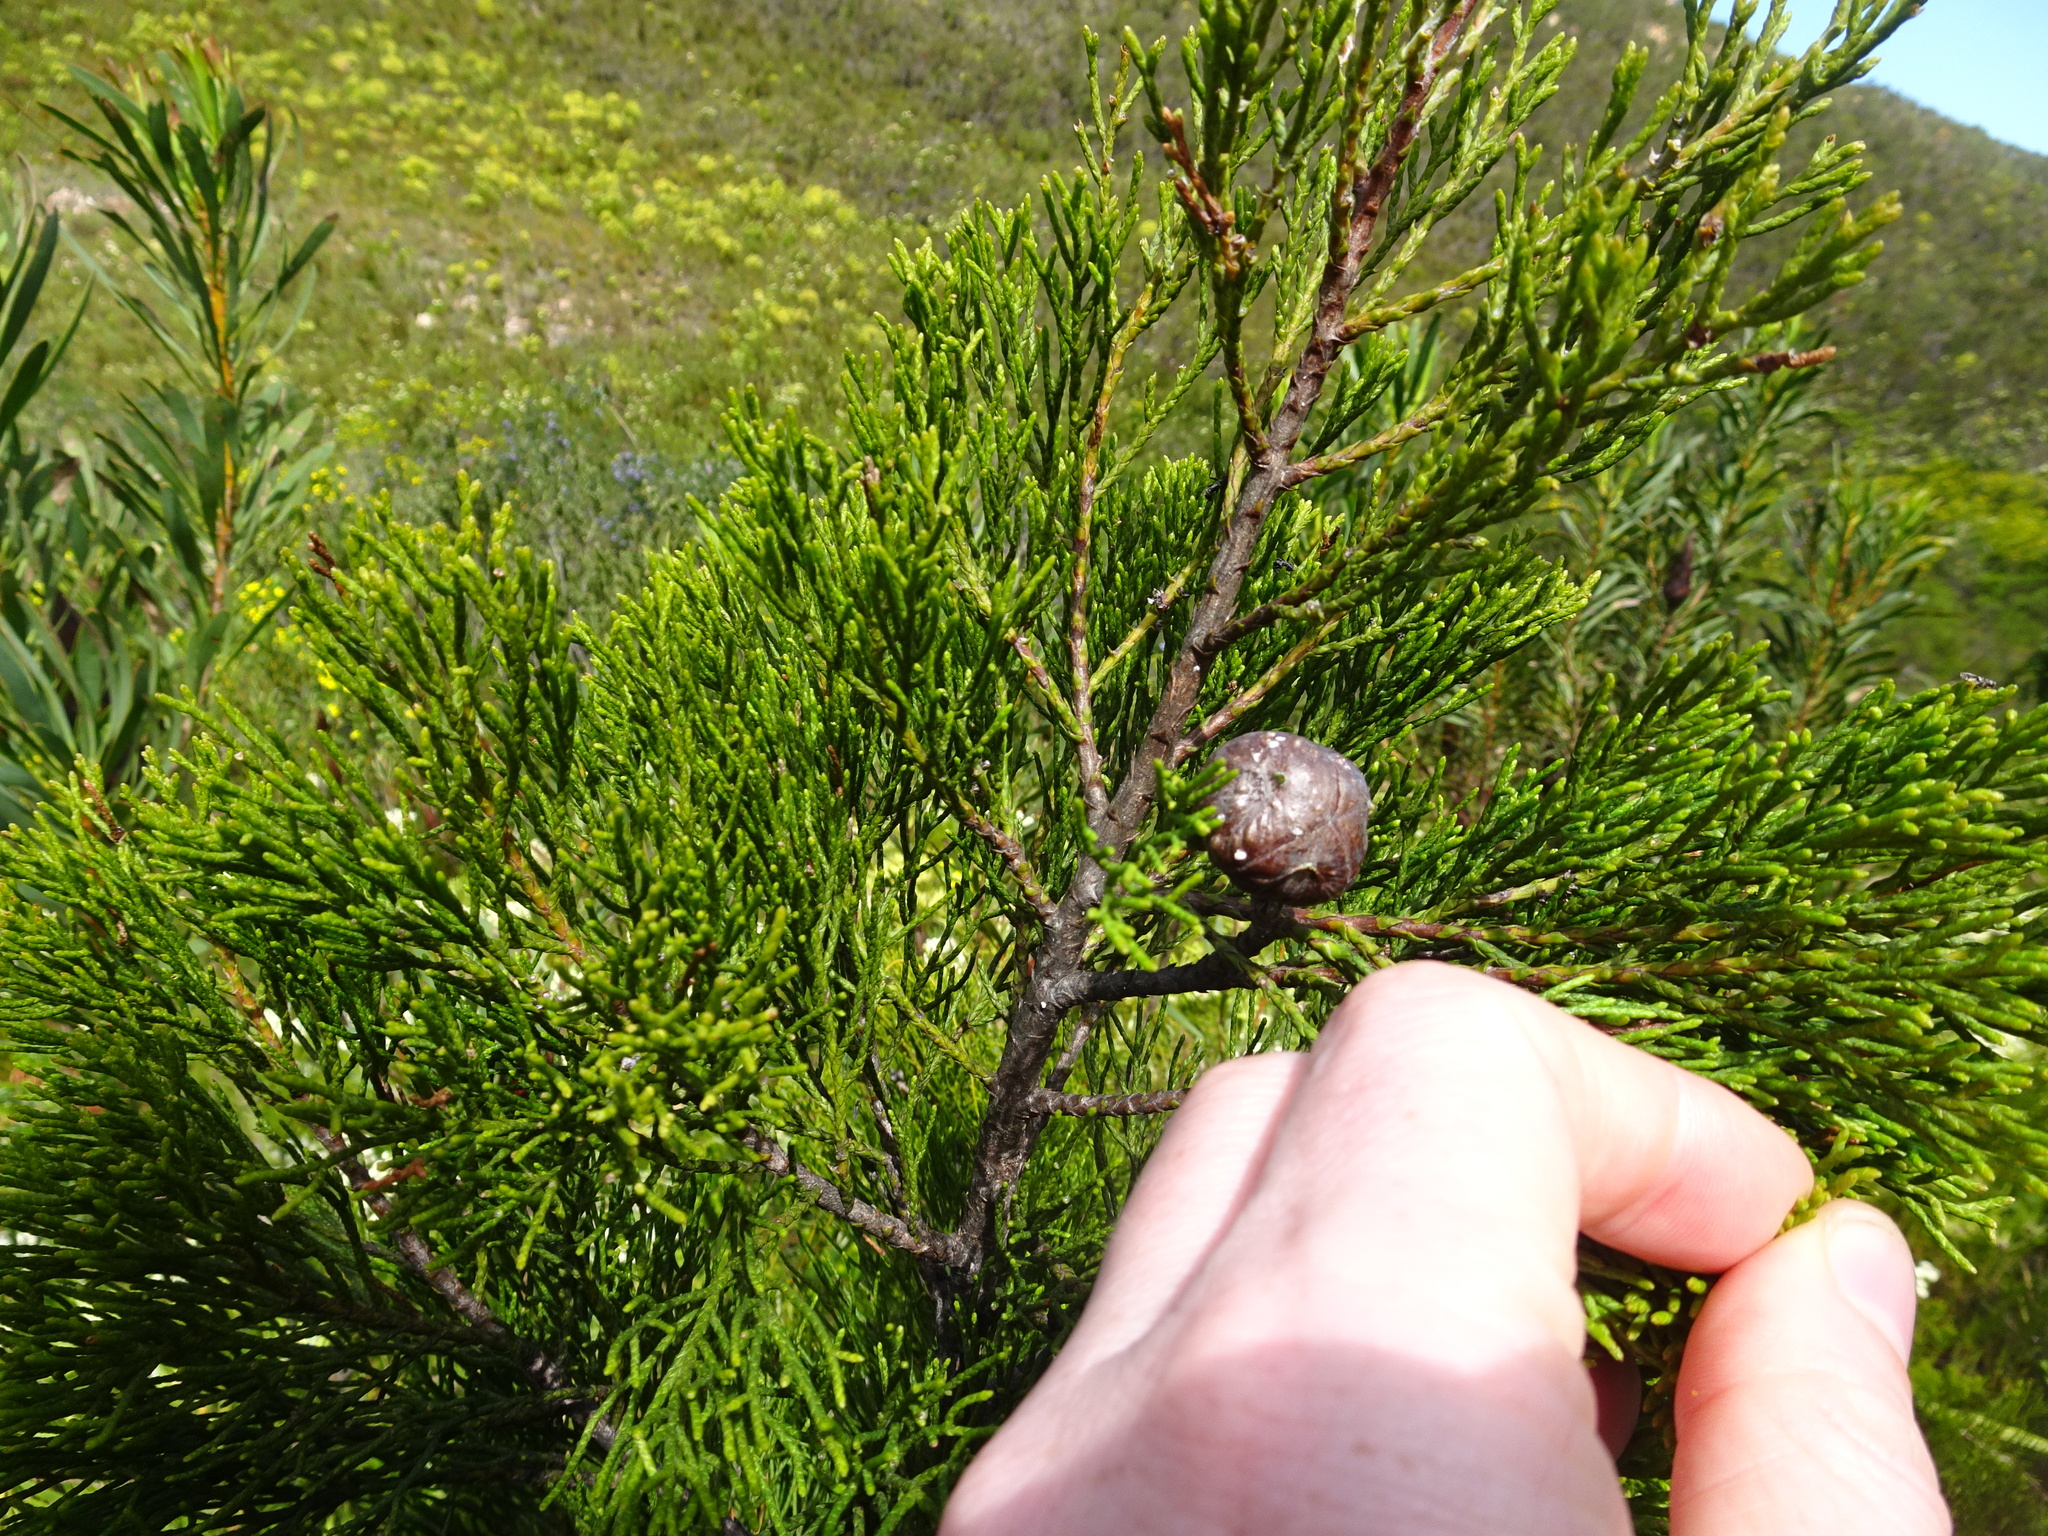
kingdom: Plantae
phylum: Tracheophyta
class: Pinopsida
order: Pinales
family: Cupressaceae
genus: Widdringtonia
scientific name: Widdringtonia nodiflora
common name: Cape cypress
